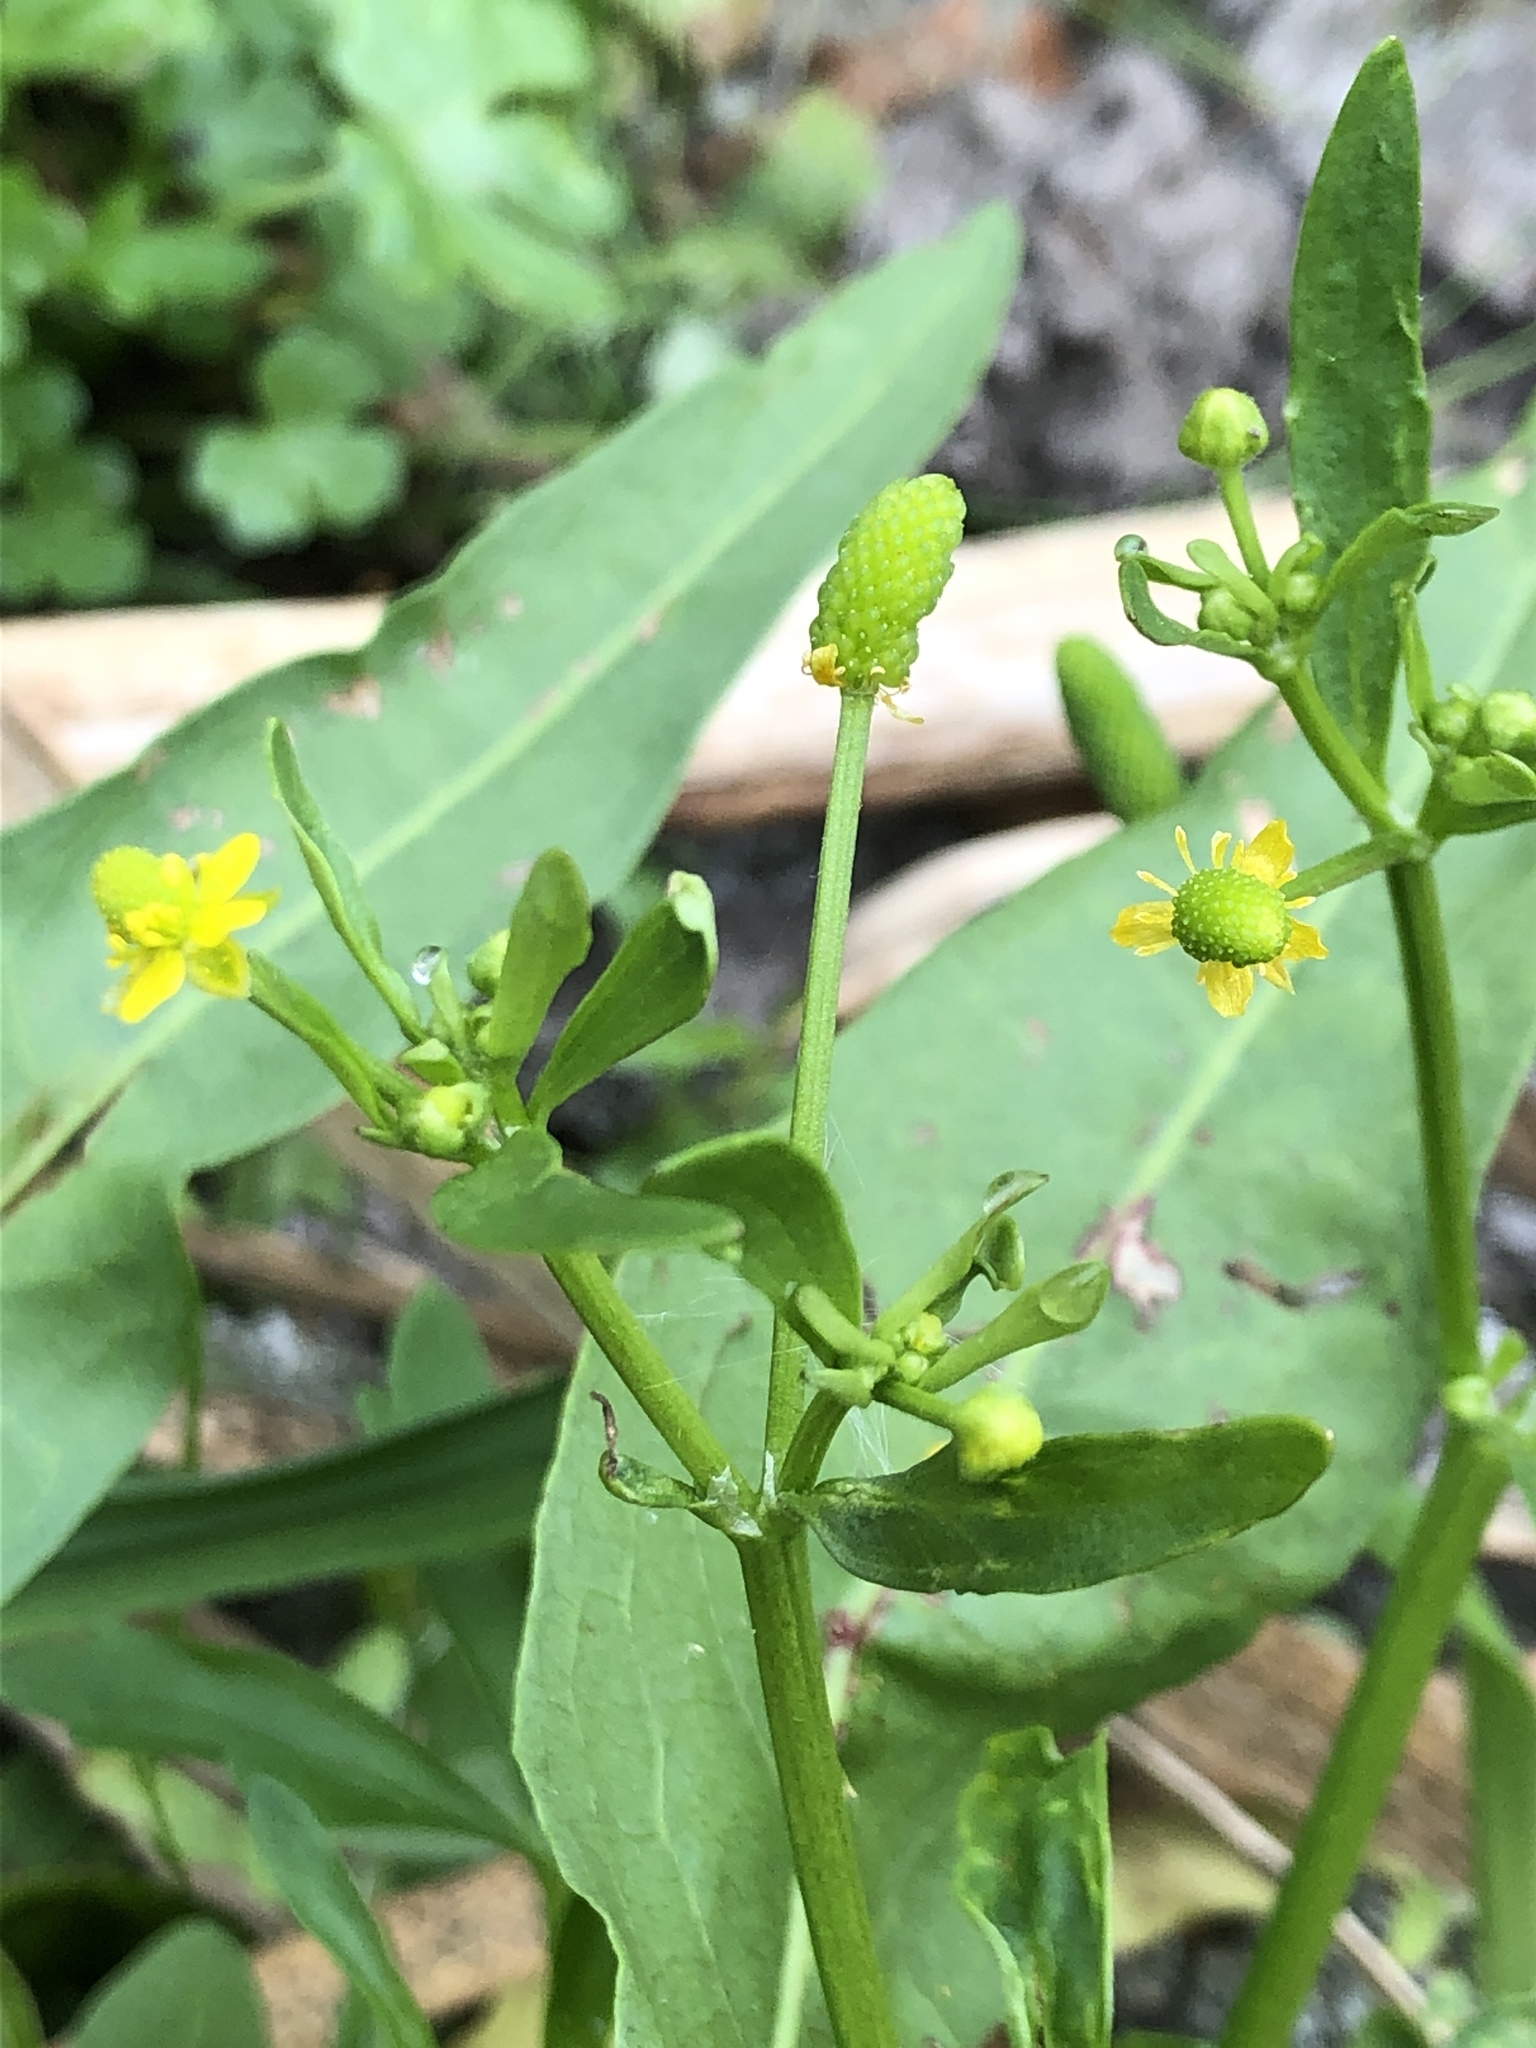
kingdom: Plantae
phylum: Tracheophyta
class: Magnoliopsida
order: Ranunculales
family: Ranunculaceae
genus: Ranunculus
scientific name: Ranunculus sceleratus
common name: Celery-leaved buttercup
